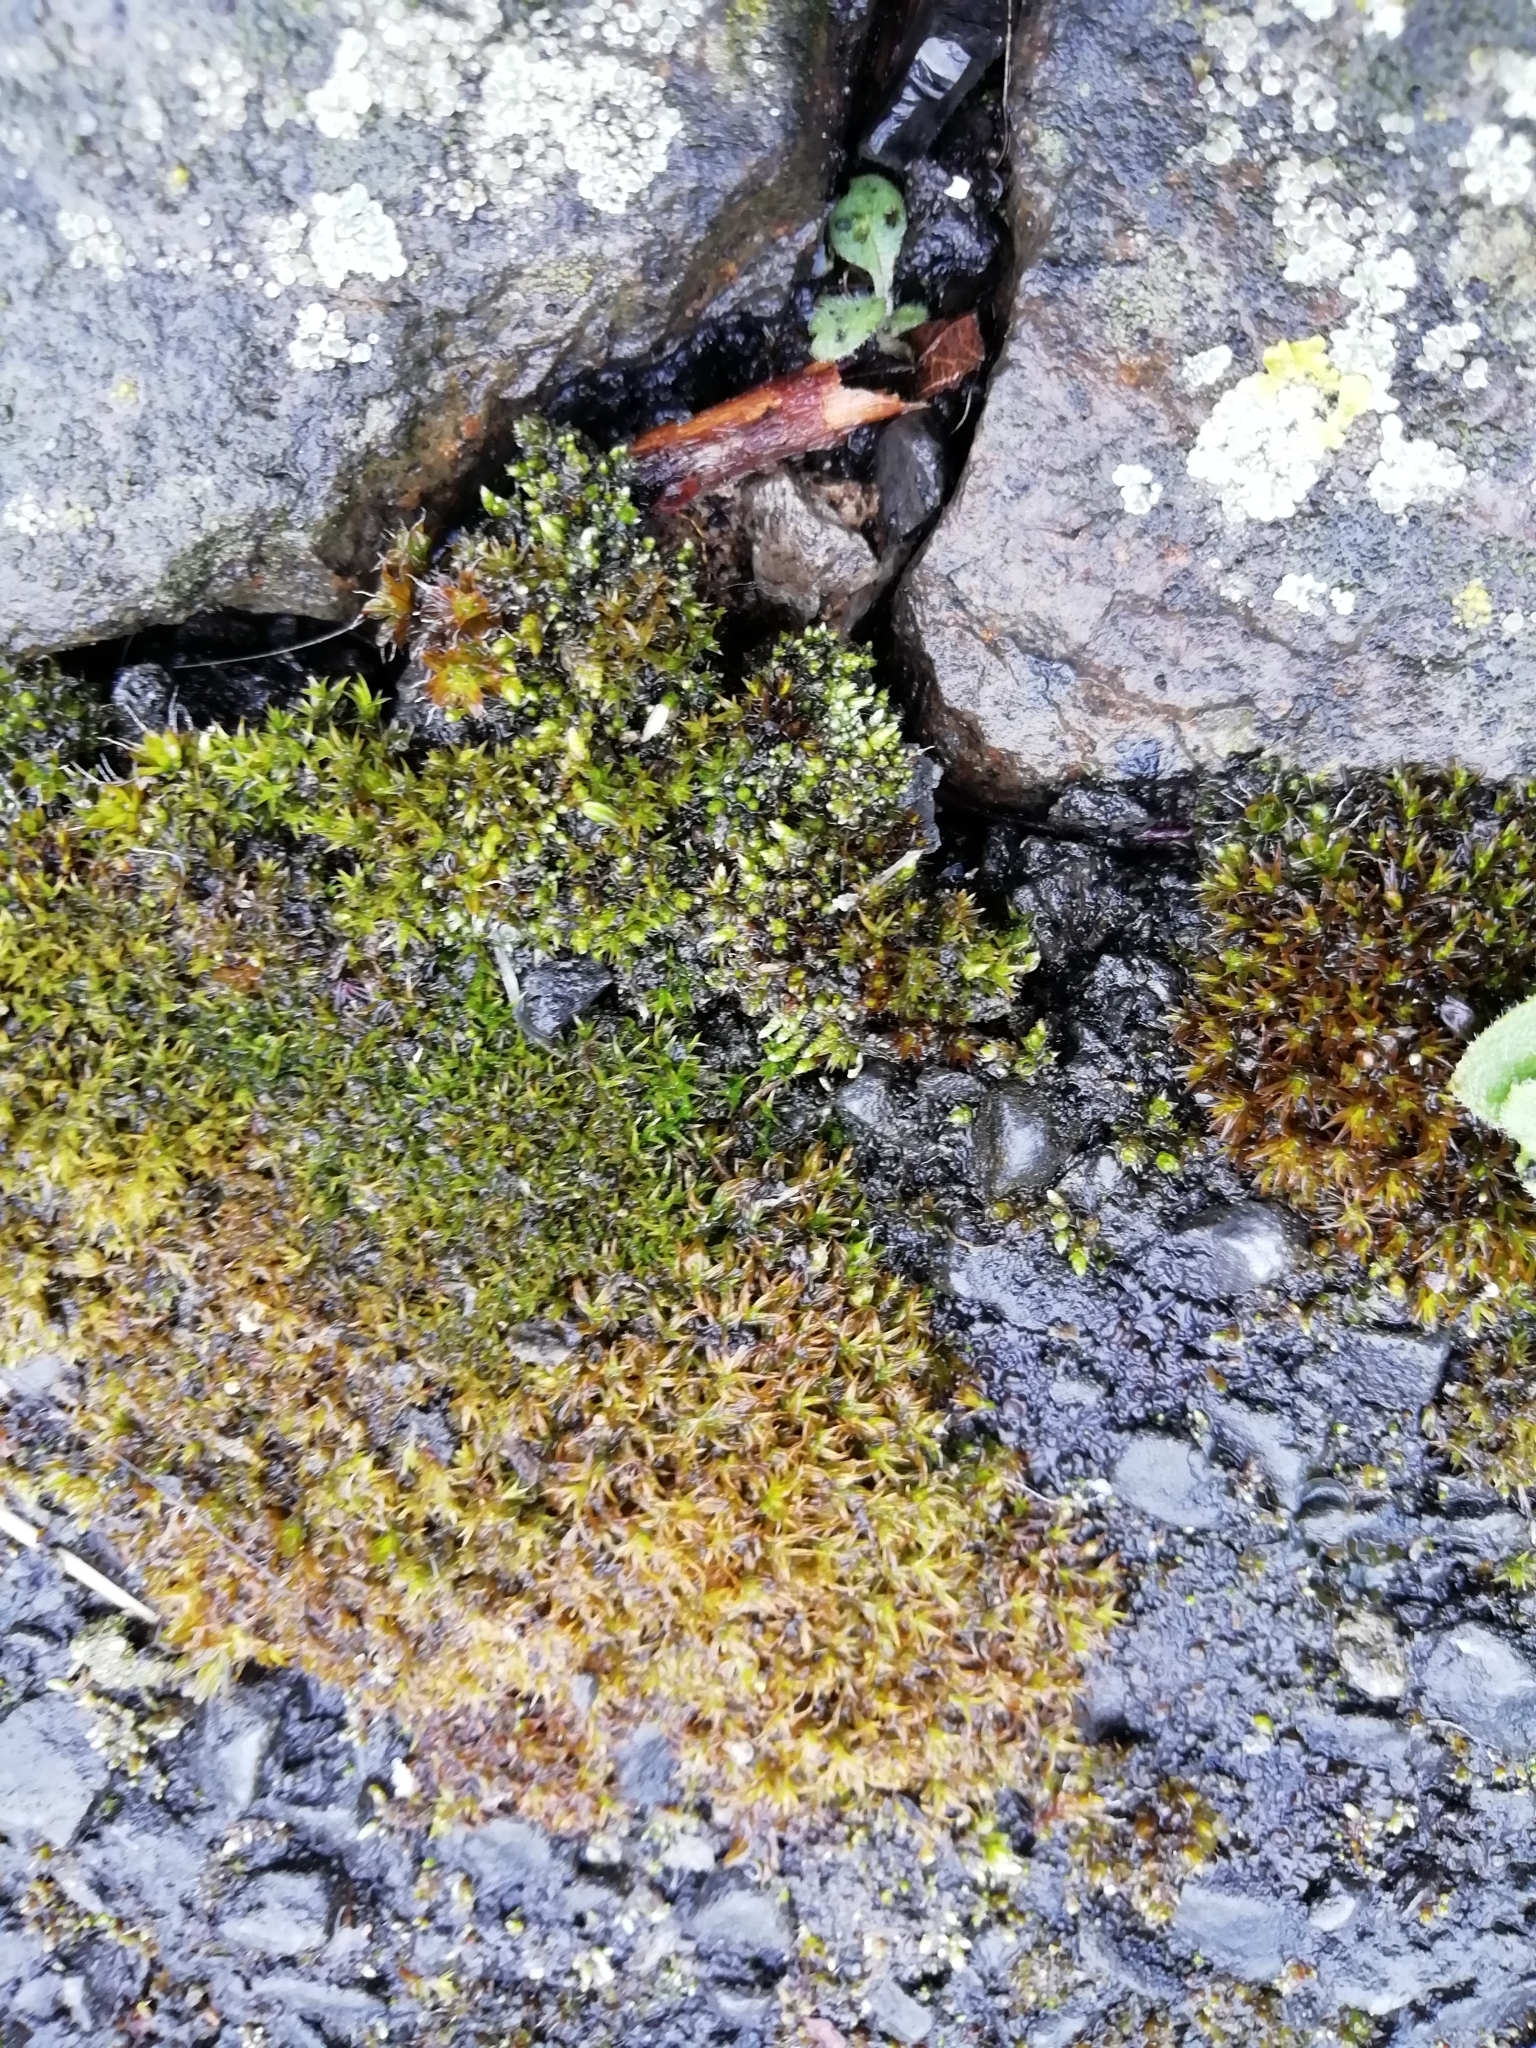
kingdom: Plantae
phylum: Bryophyta
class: Bryopsida
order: Bryales
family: Bryaceae
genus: Bryum
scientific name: Bryum argenteum
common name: Silver-moss
